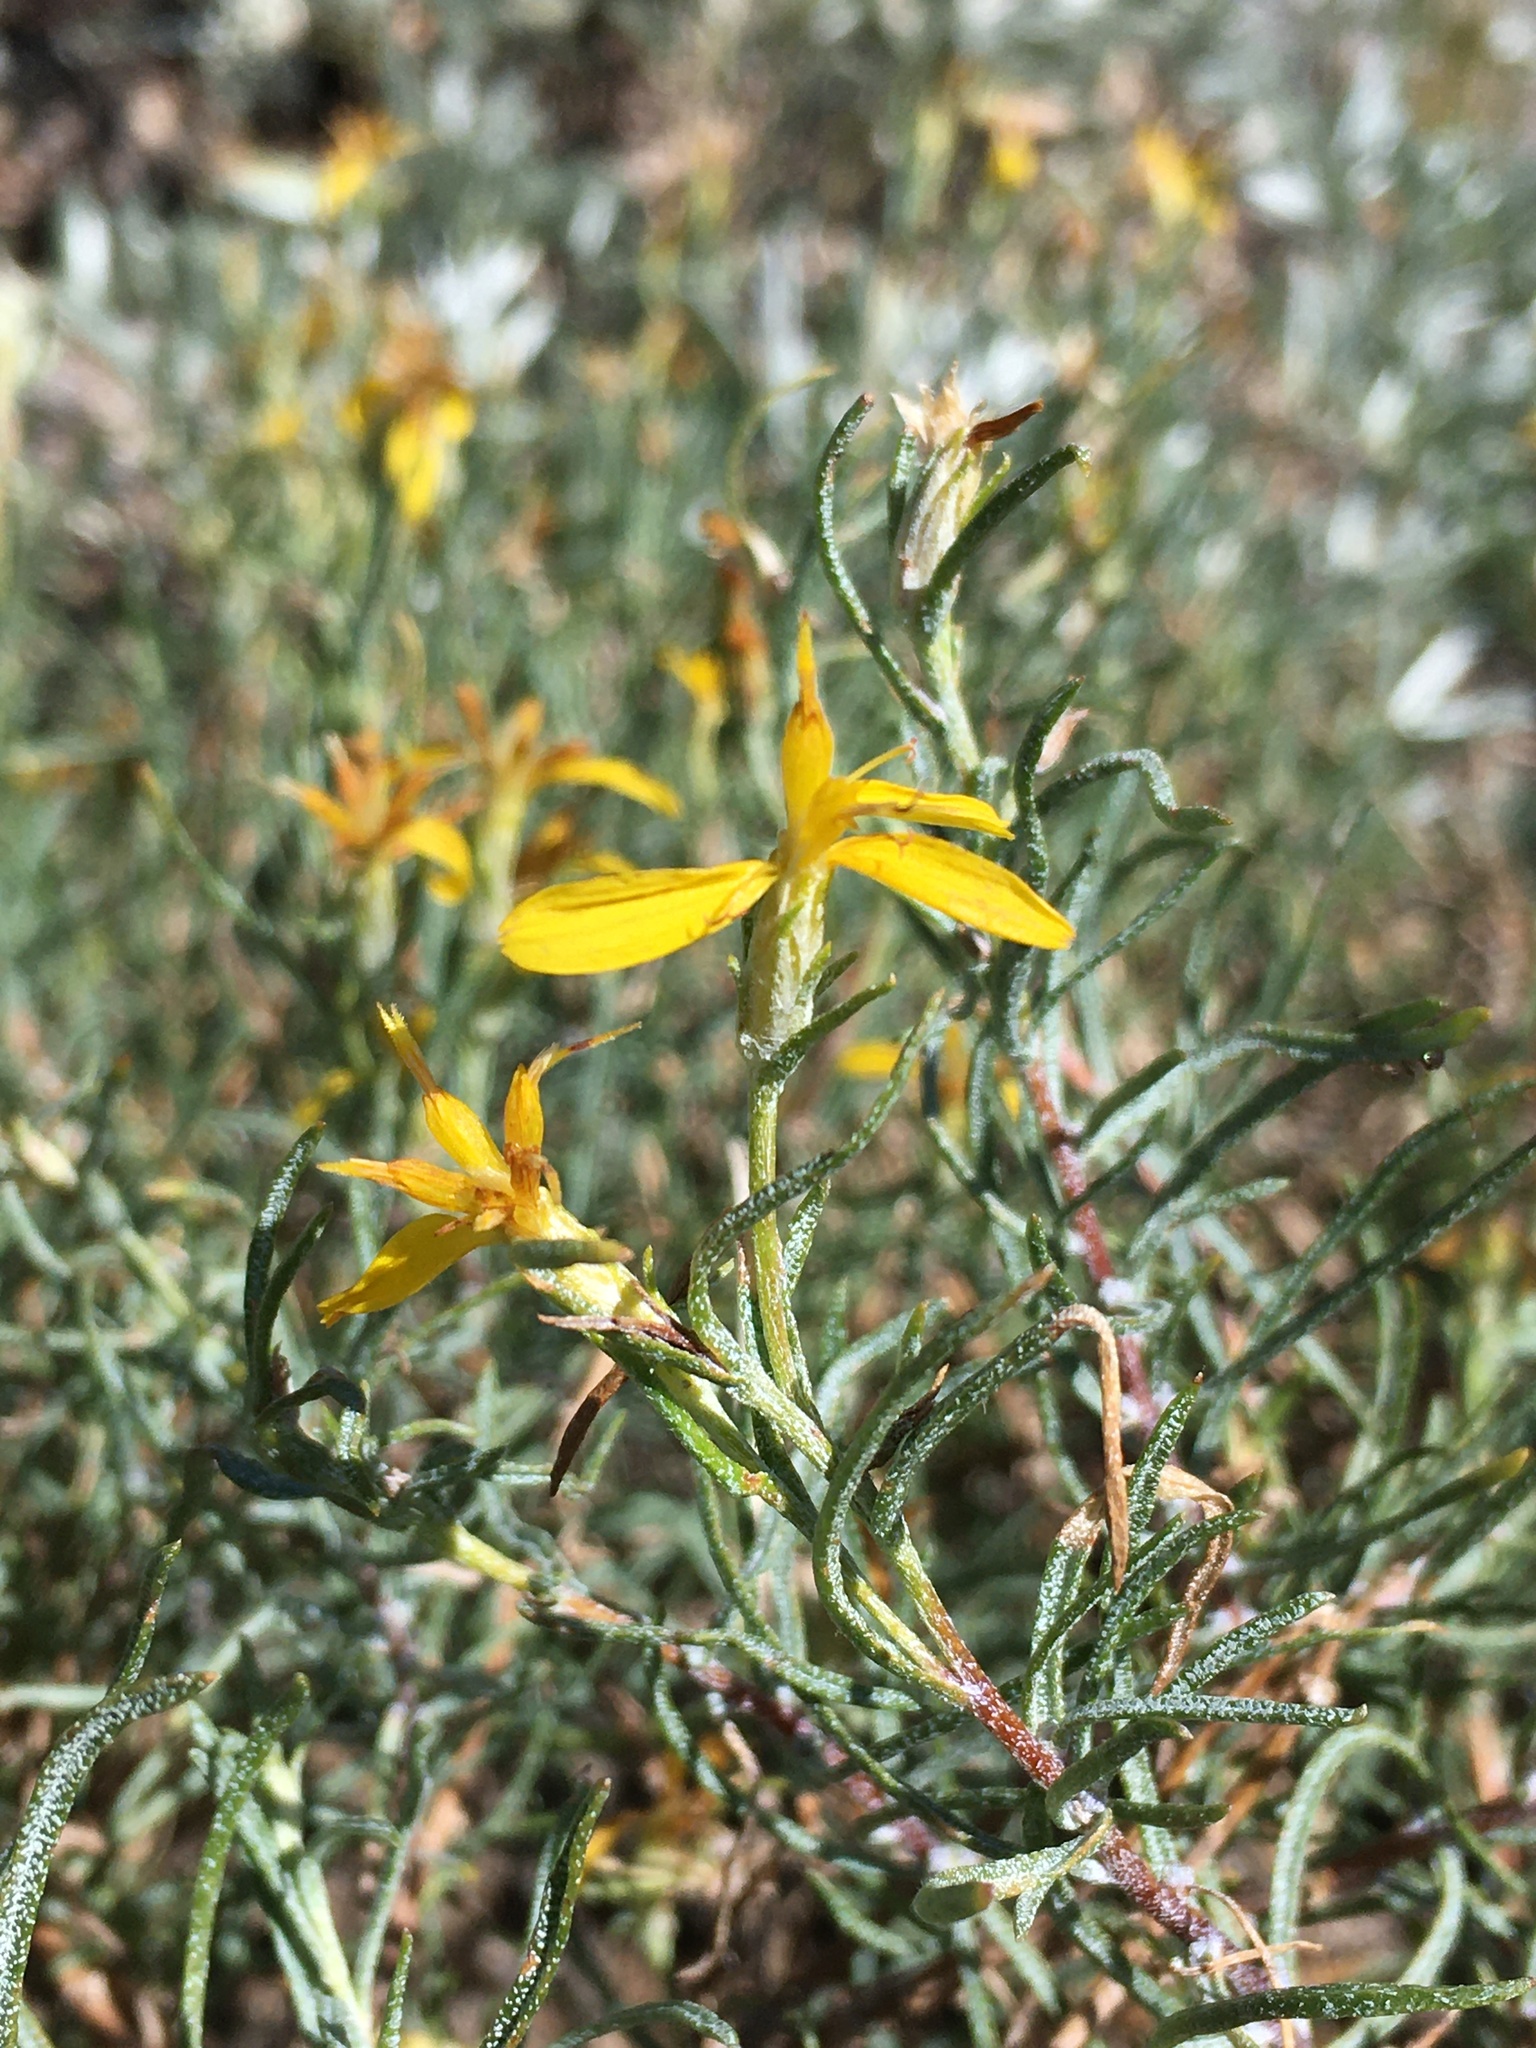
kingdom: Plantae
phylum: Tracheophyta
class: Magnoliopsida
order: Asterales
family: Asteraceae
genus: Ericameria
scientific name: Ericameria bloomeri
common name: Bloomer's goldenbush
